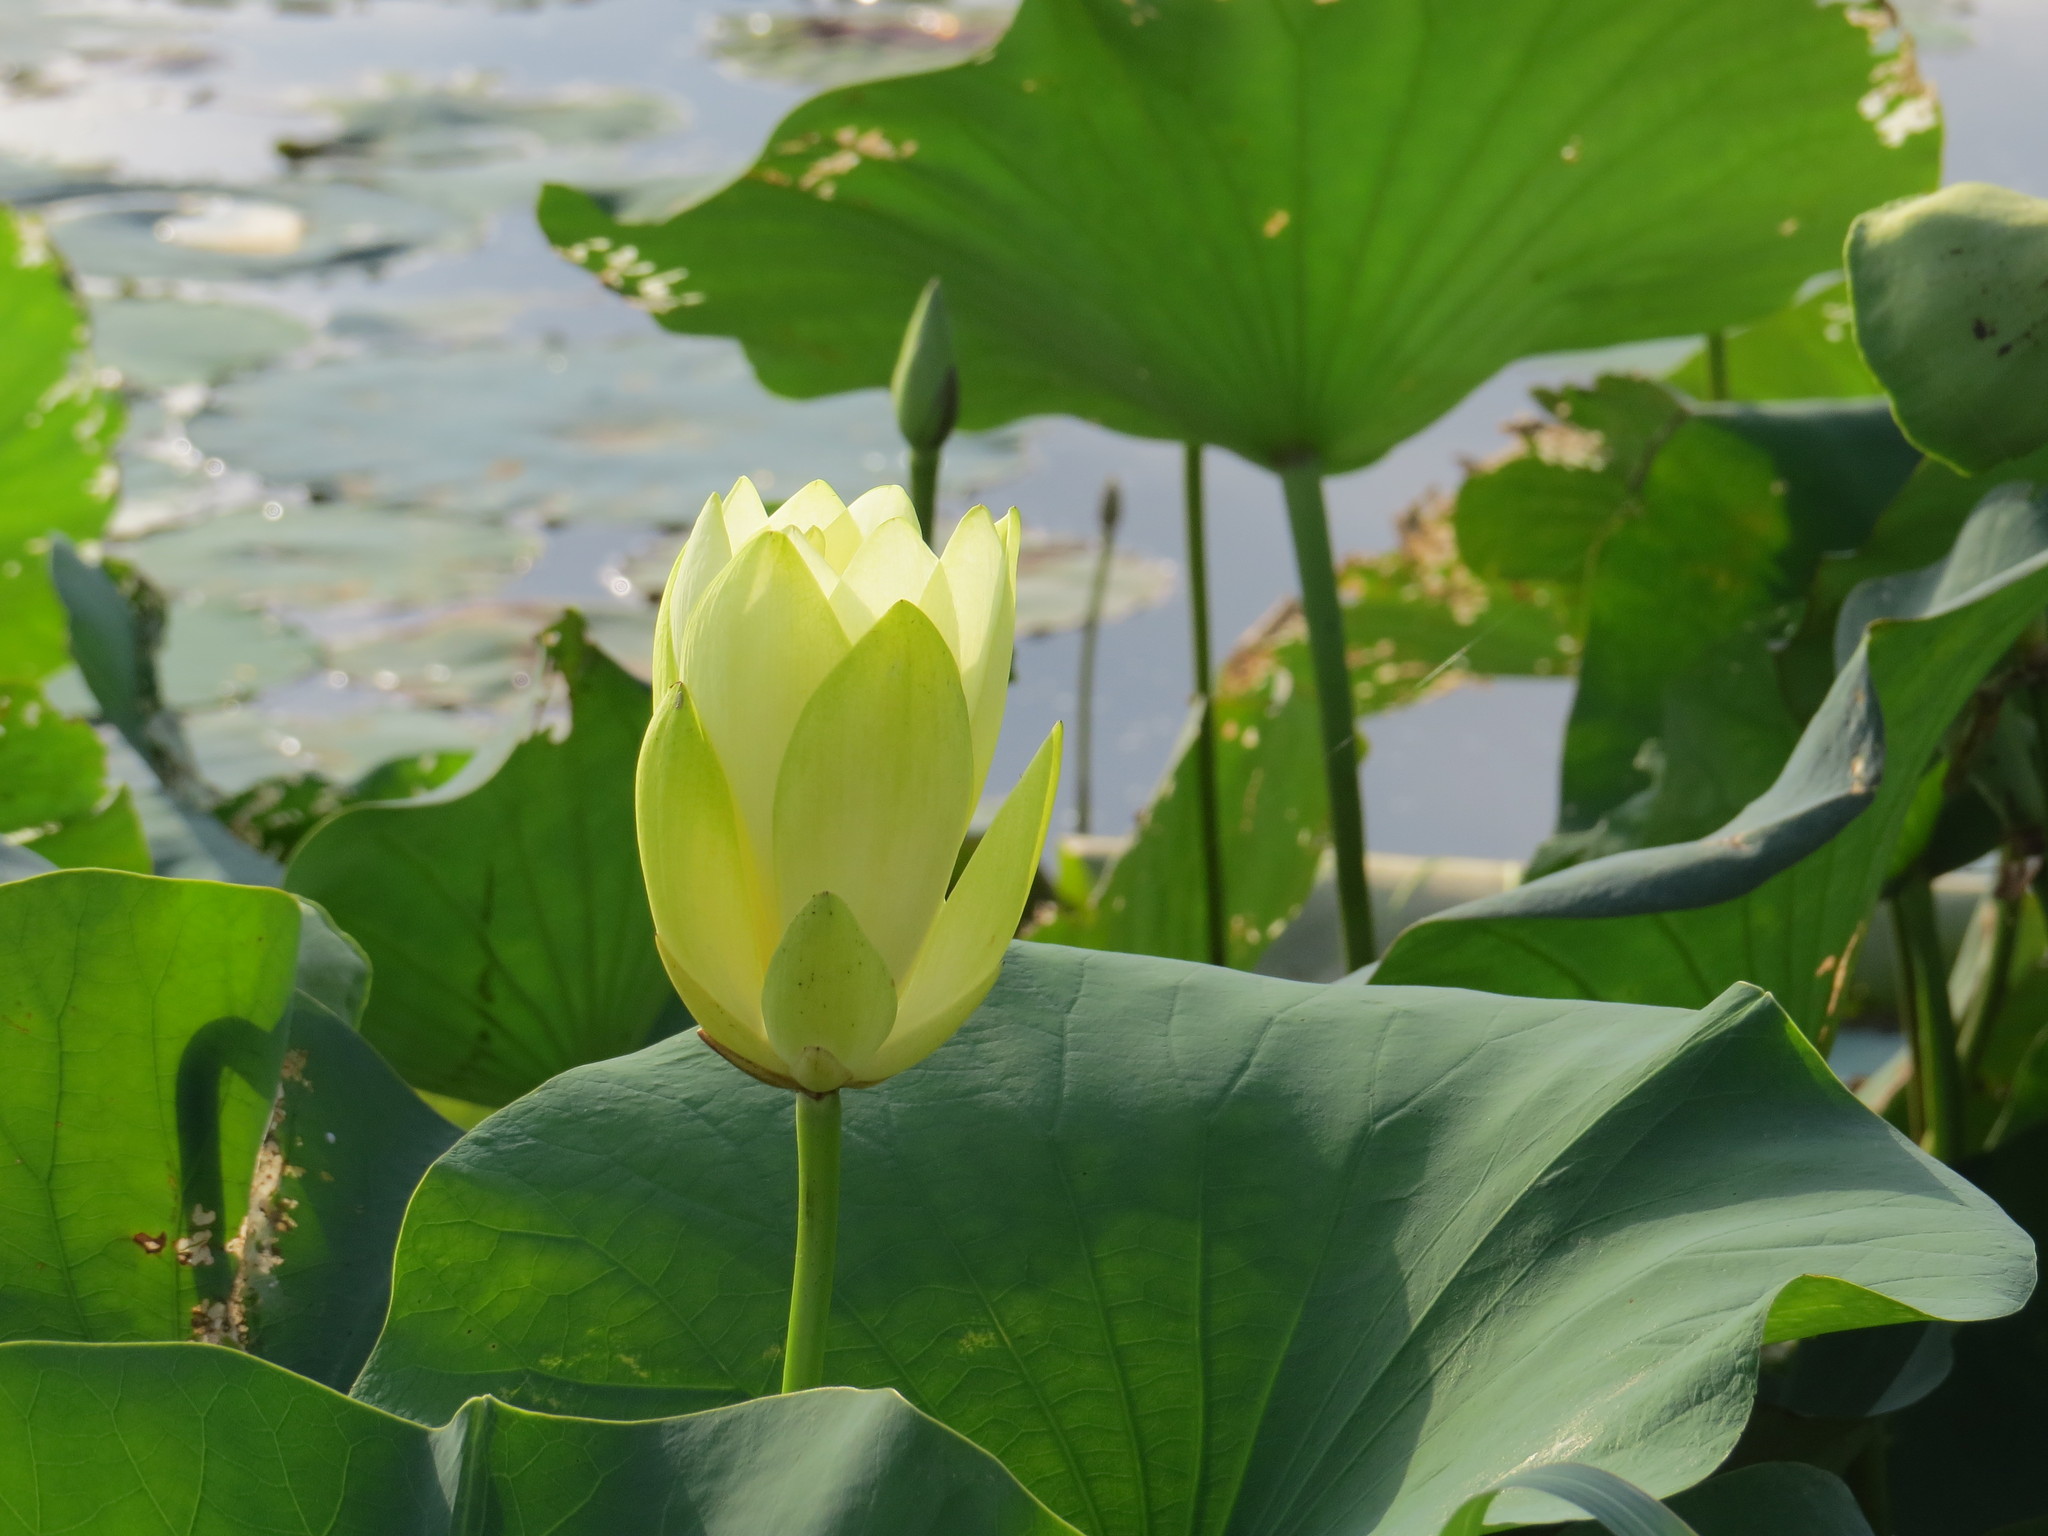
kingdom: Plantae
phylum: Tracheophyta
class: Magnoliopsida
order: Proteales
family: Nelumbonaceae
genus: Nelumbo
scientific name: Nelumbo lutea
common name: American lotus
